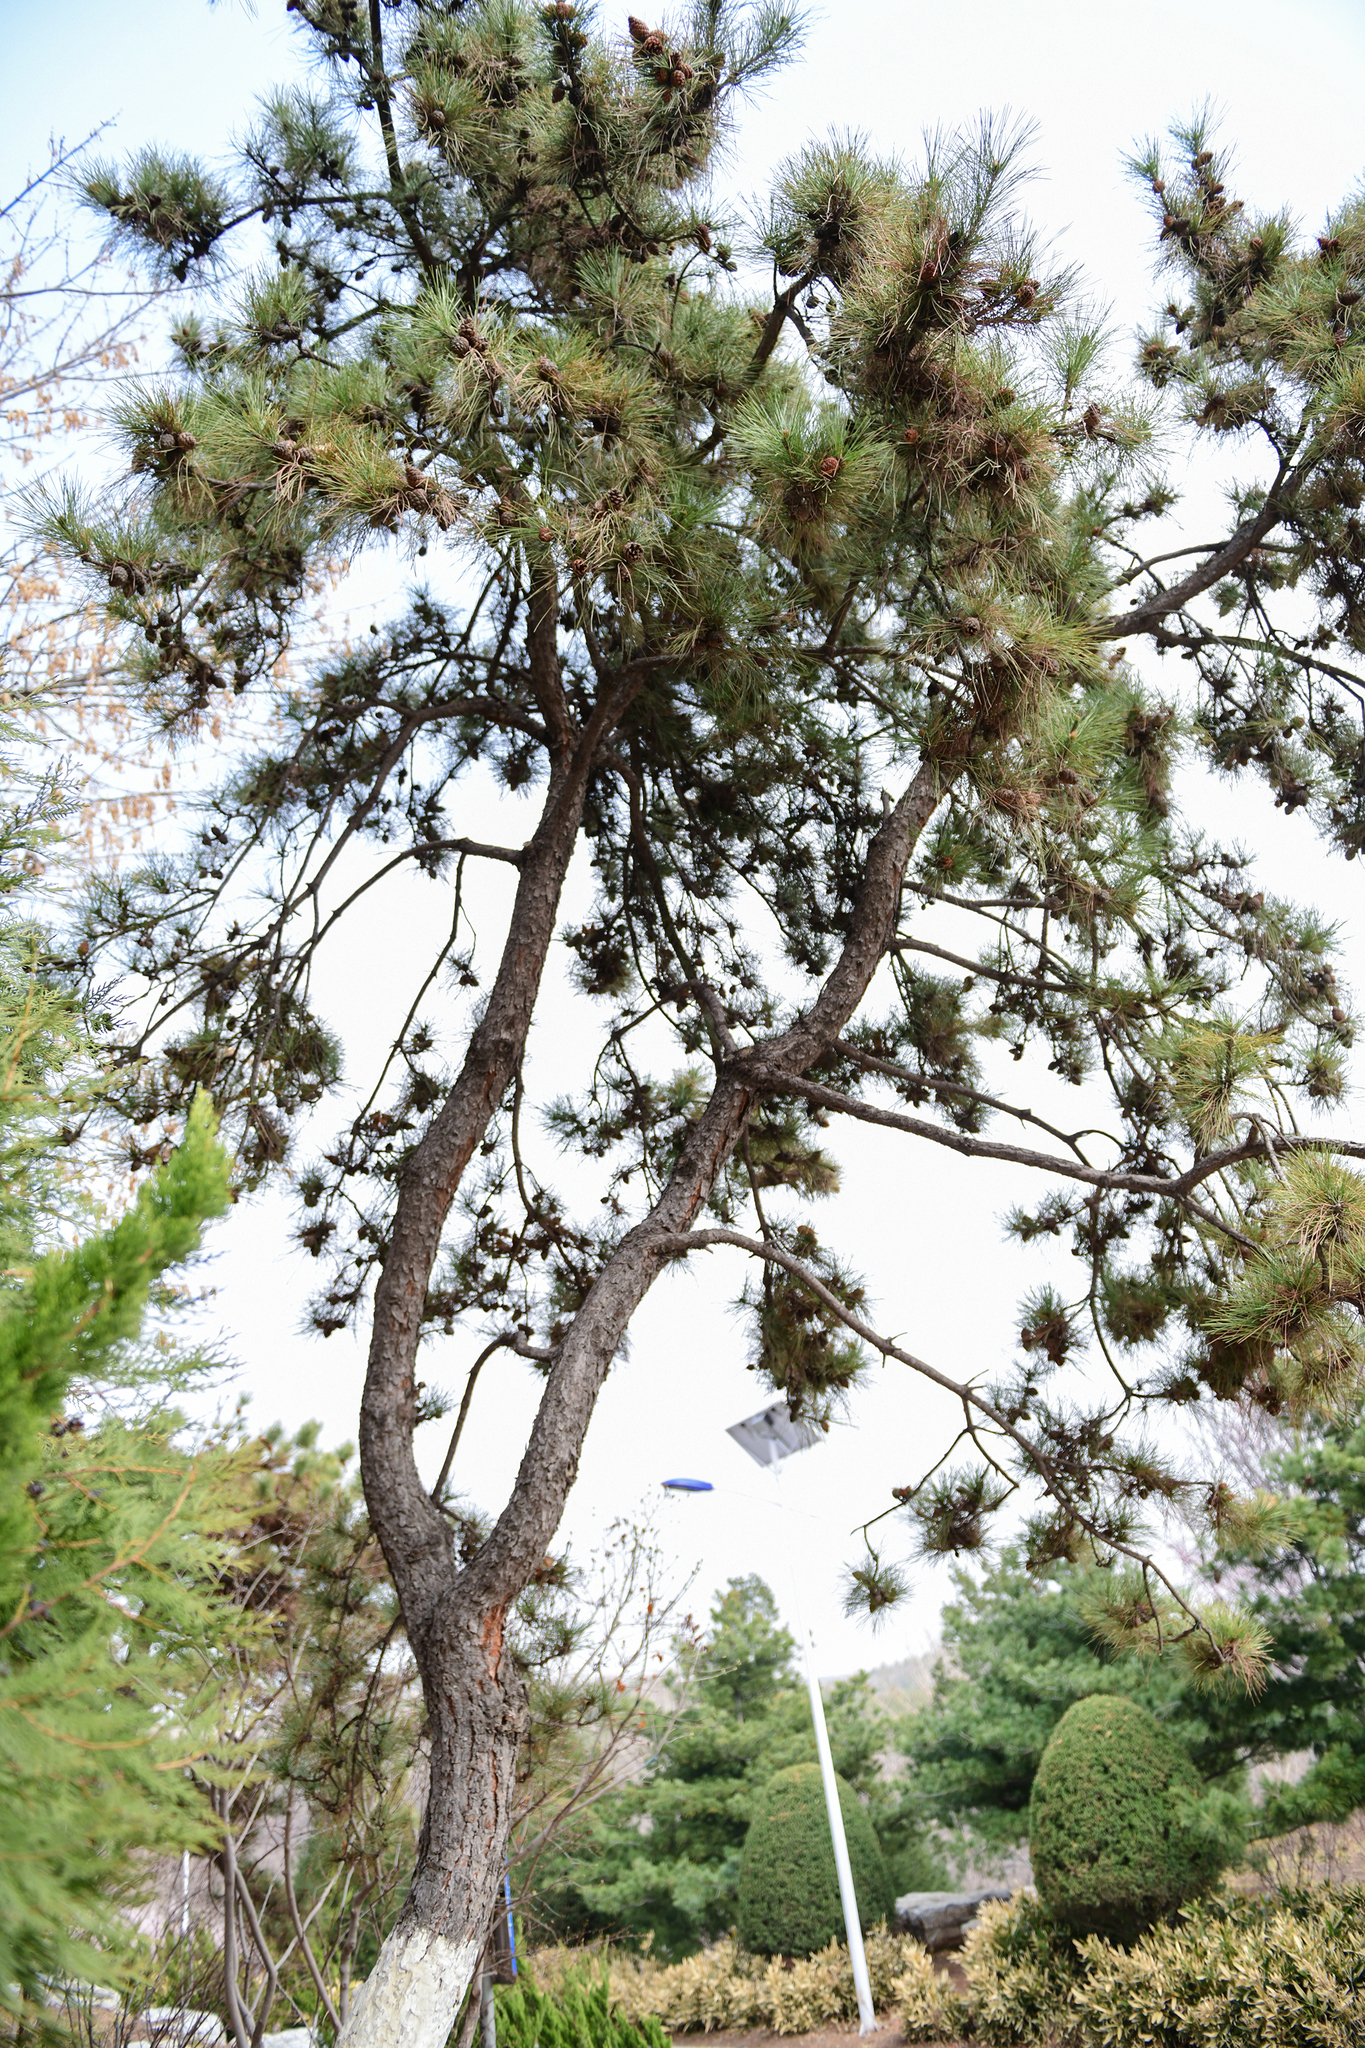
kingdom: Plantae
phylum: Tracheophyta
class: Pinopsida
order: Pinales
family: Pinaceae
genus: Pinus
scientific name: Pinus tabuliformis
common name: Chinese red pine
